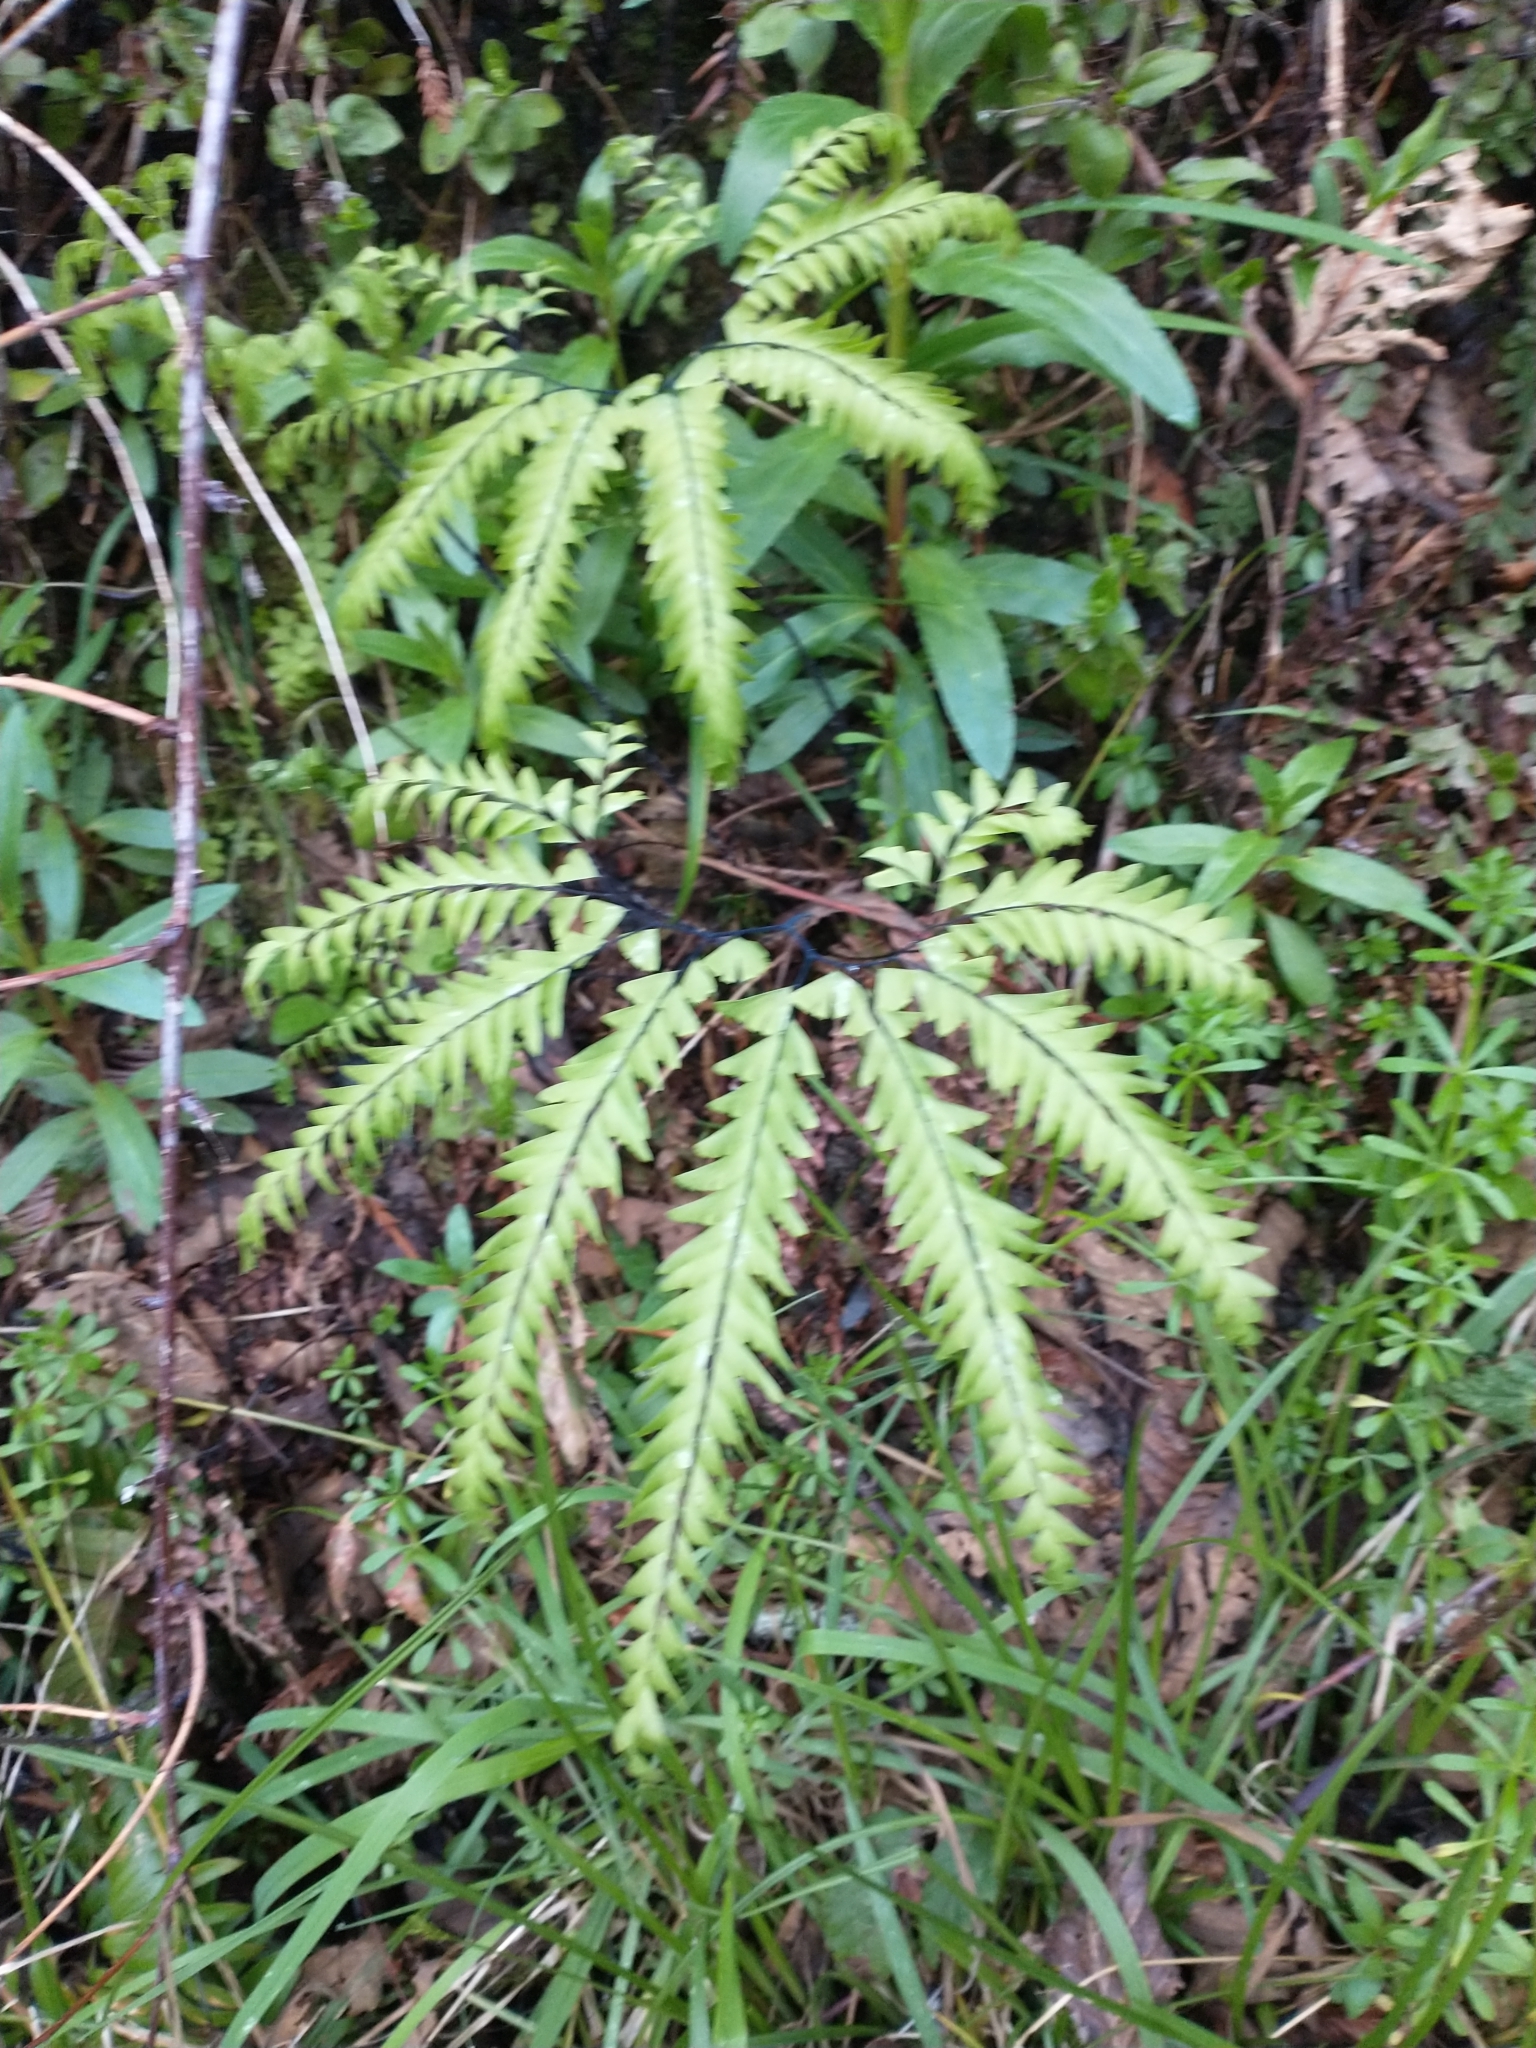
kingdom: Plantae
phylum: Tracheophyta
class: Polypodiopsida
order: Polypodiales
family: Pteridaceae
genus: Adiantum
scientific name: Adiantum aleuticum
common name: Aleutian maidenhair fern
